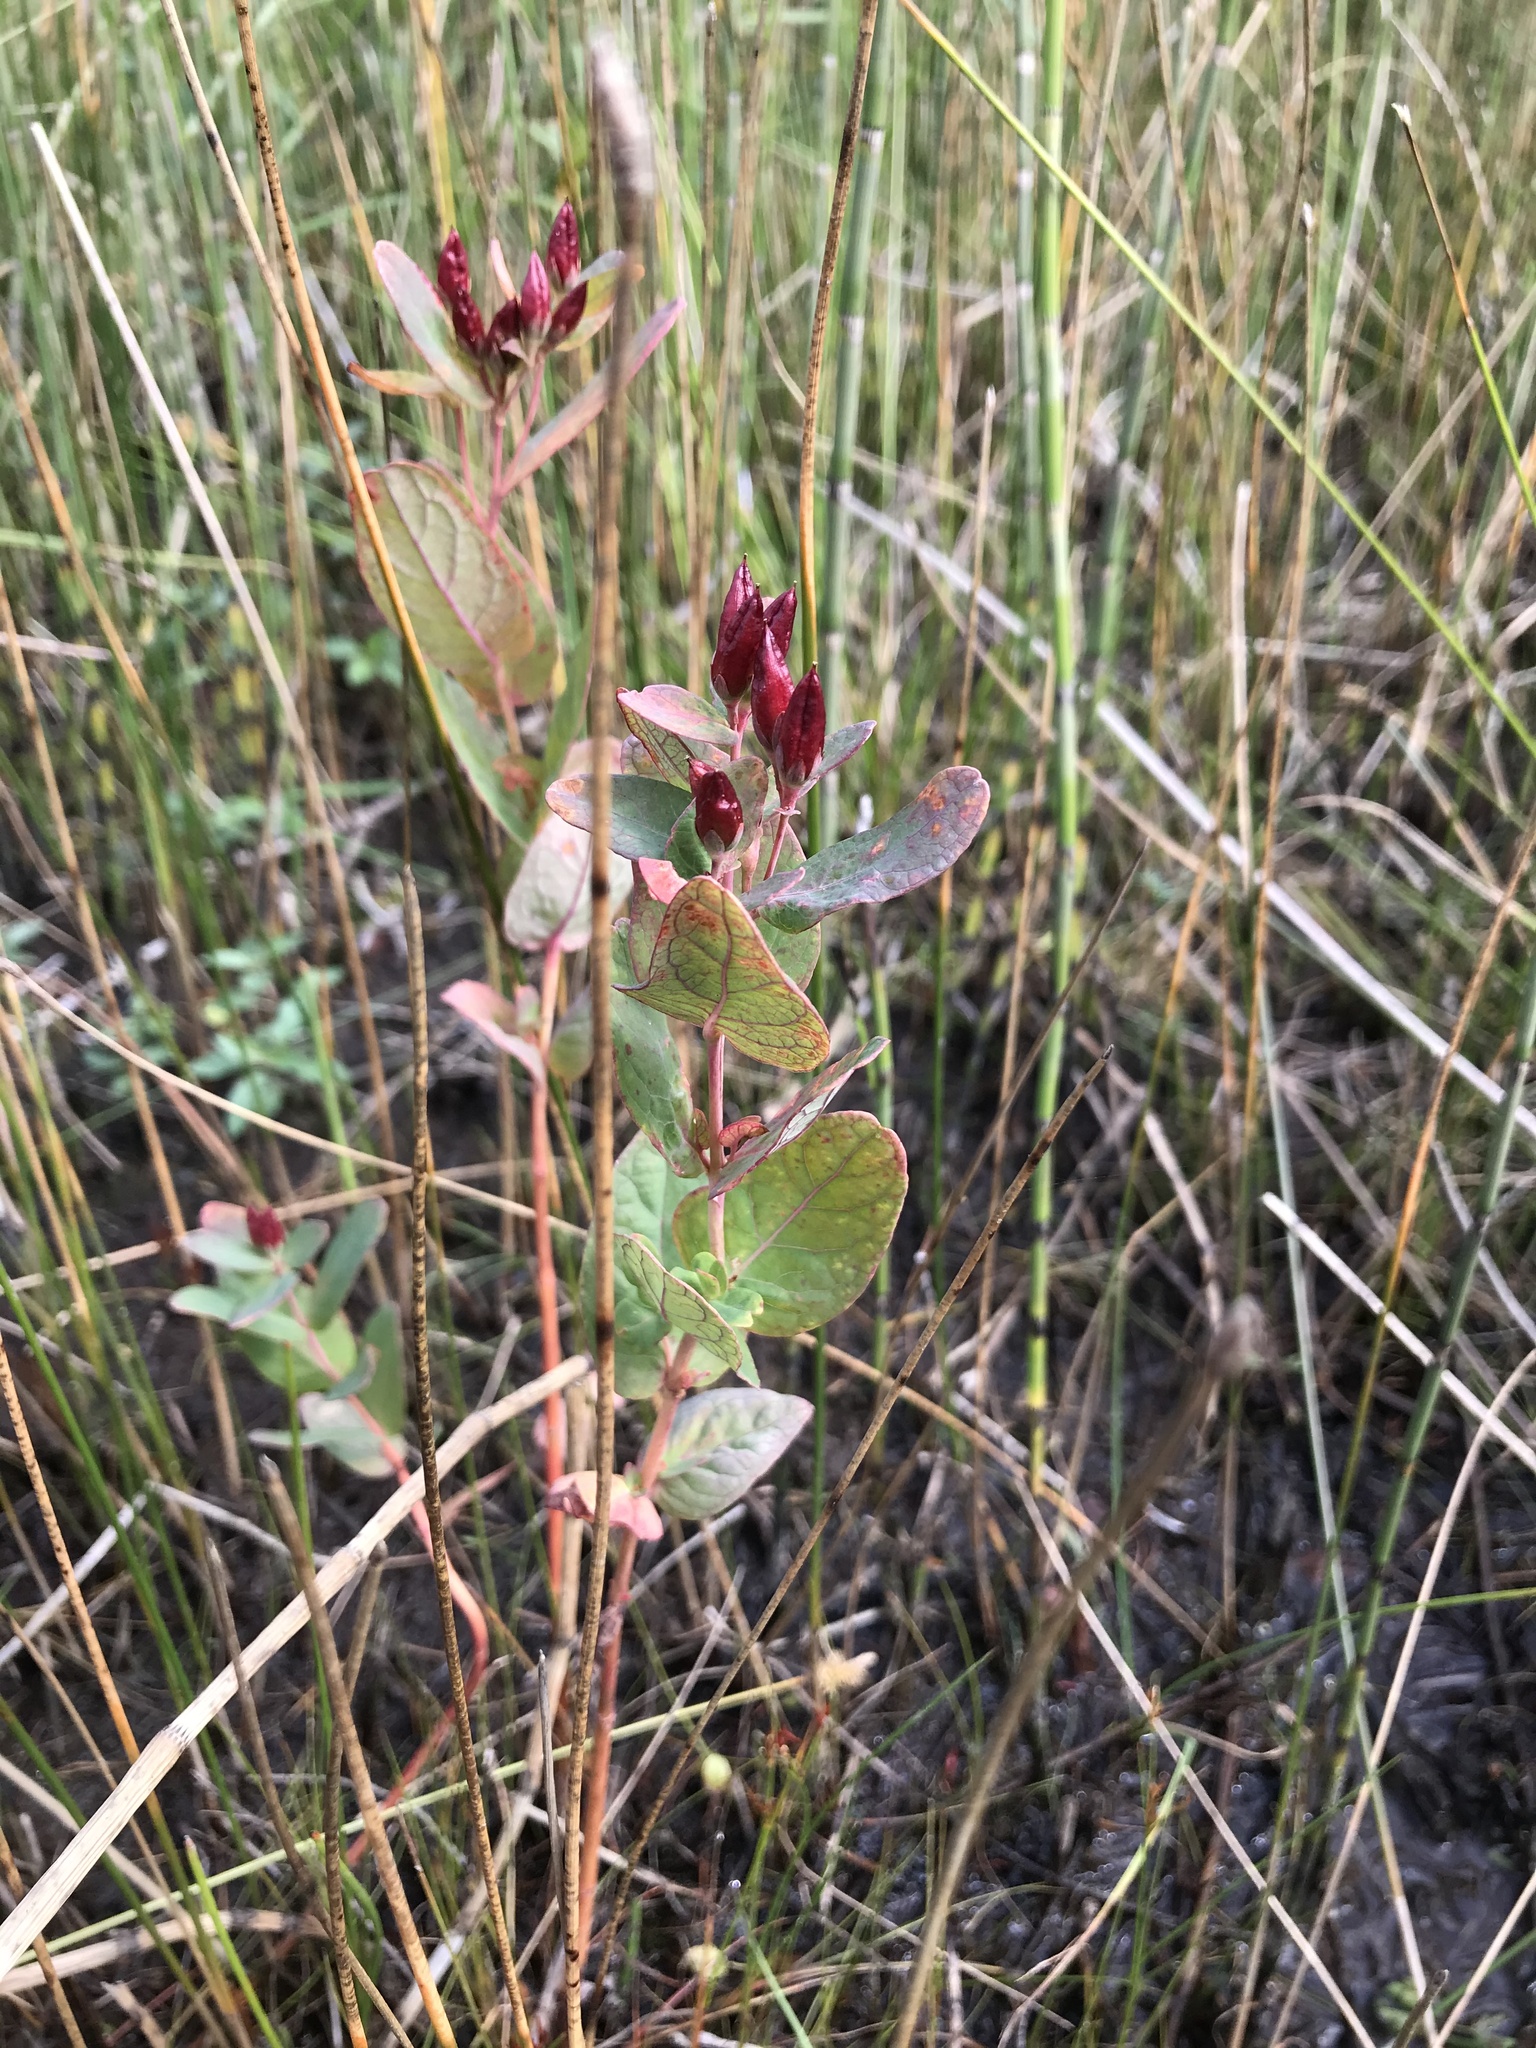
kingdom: Plantae
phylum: Tracheophyta
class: Magnoliopsida
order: Malpighiales
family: Hypericaceae
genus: Triadenum
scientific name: Triadenum fraseri
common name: Fraser's marsh st. johnswort
